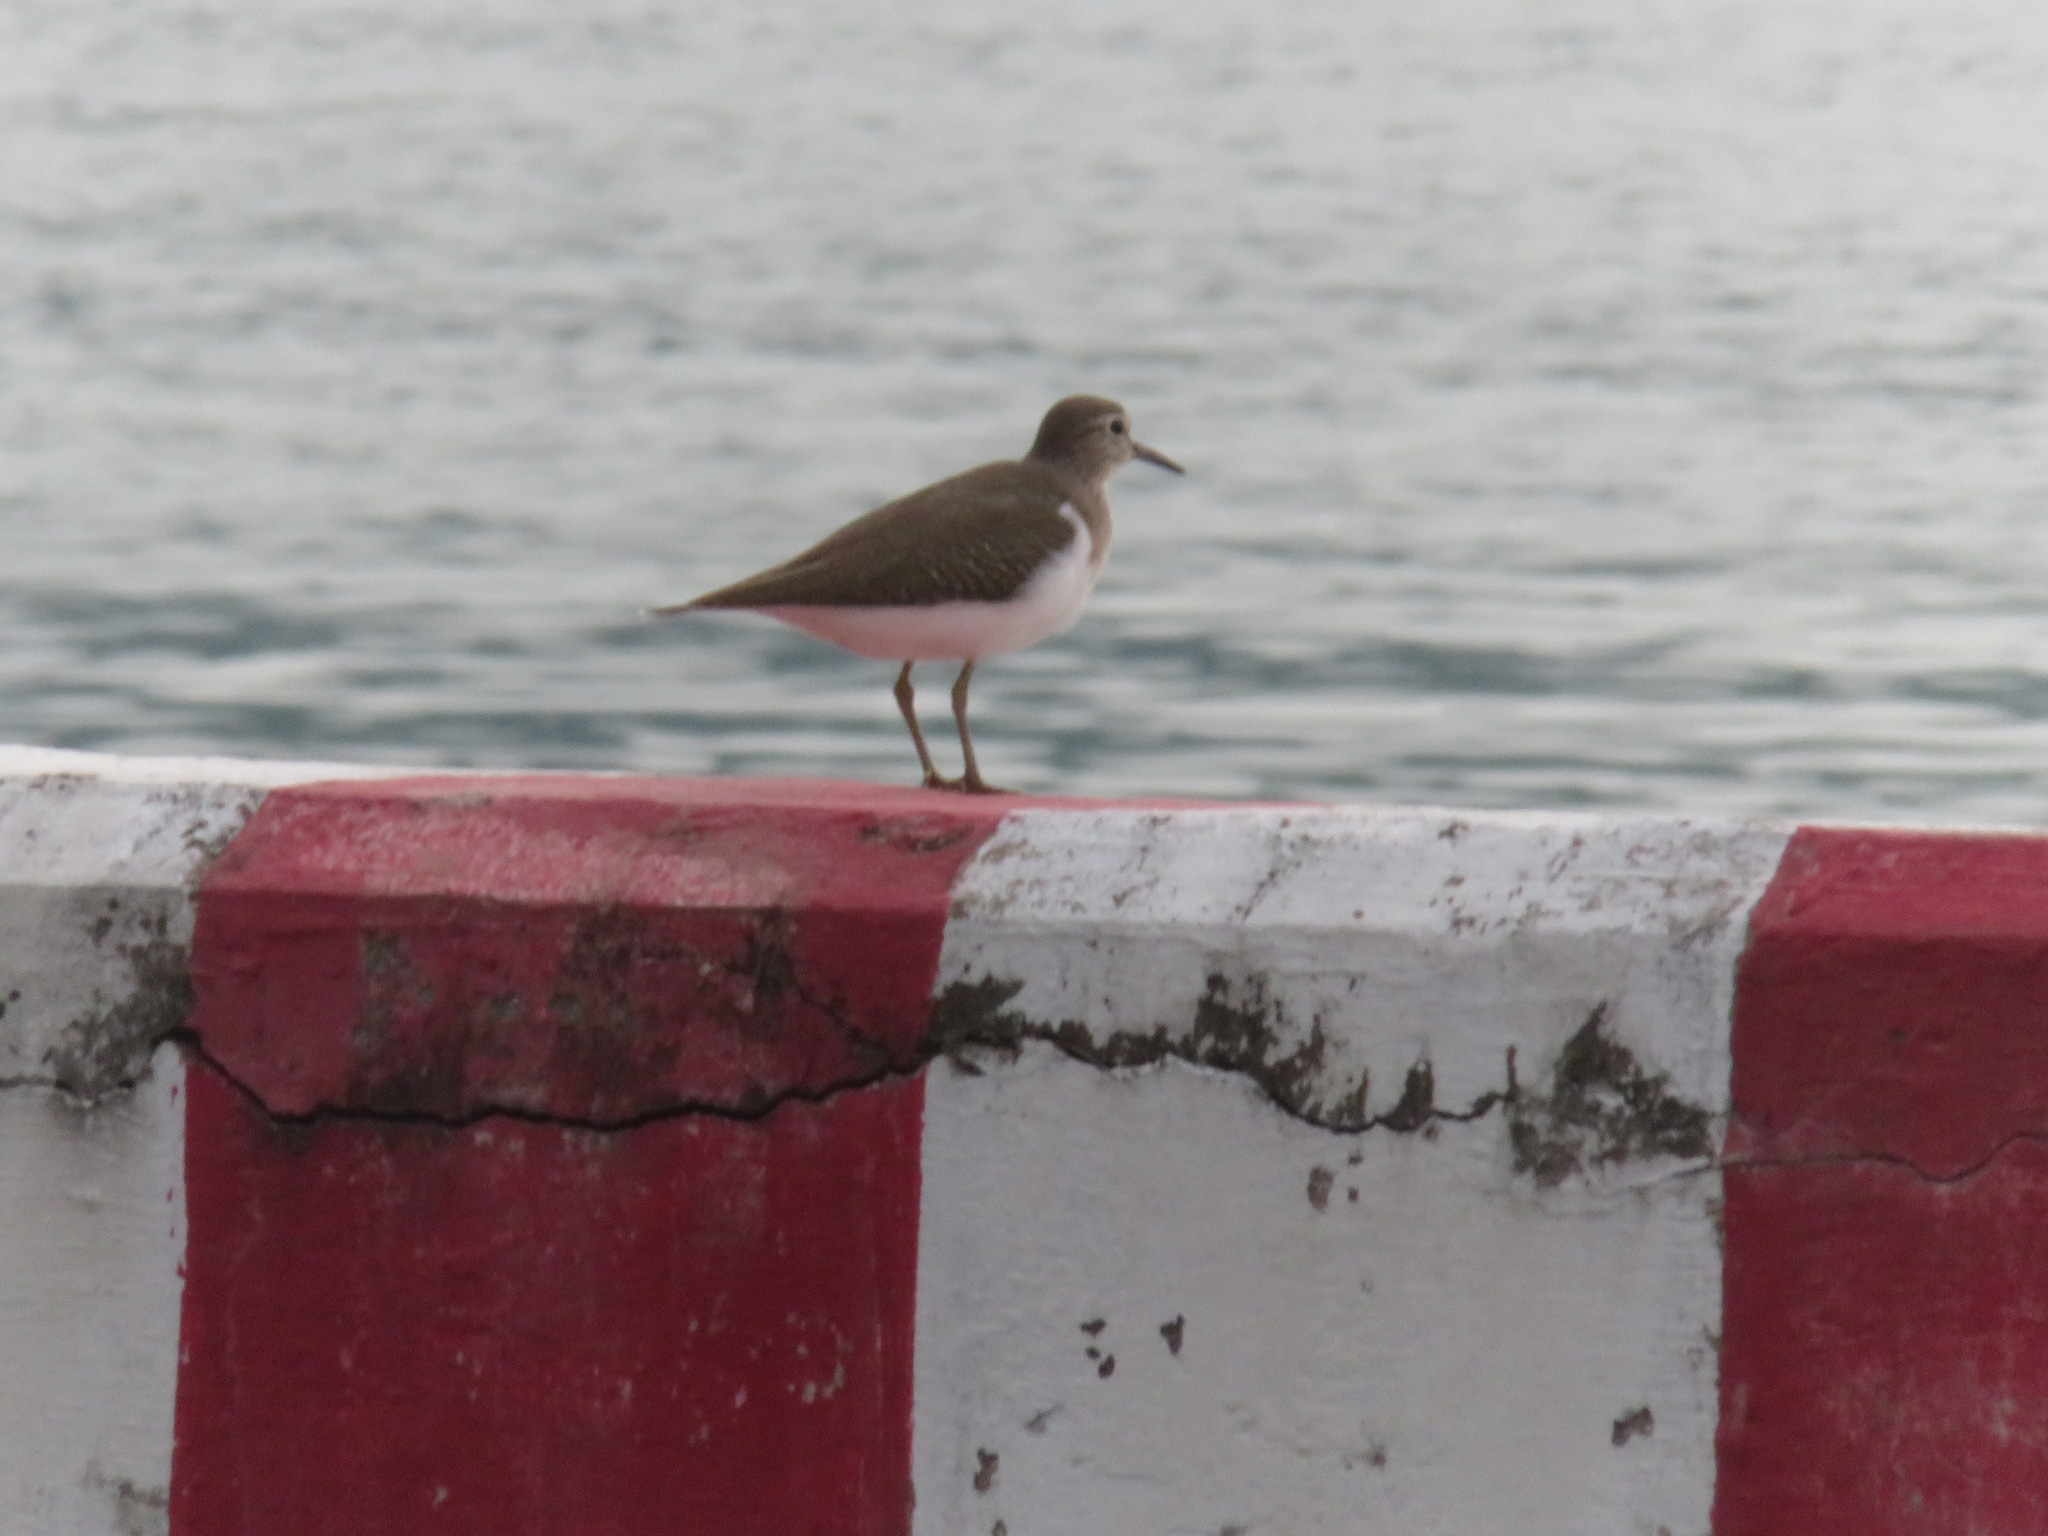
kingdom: Animalia
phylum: Chordata
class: Aves
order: Charadriiformes
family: Scolopacidae
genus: Actitis
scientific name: Actitis hypoleucos
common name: Common sandpiper
